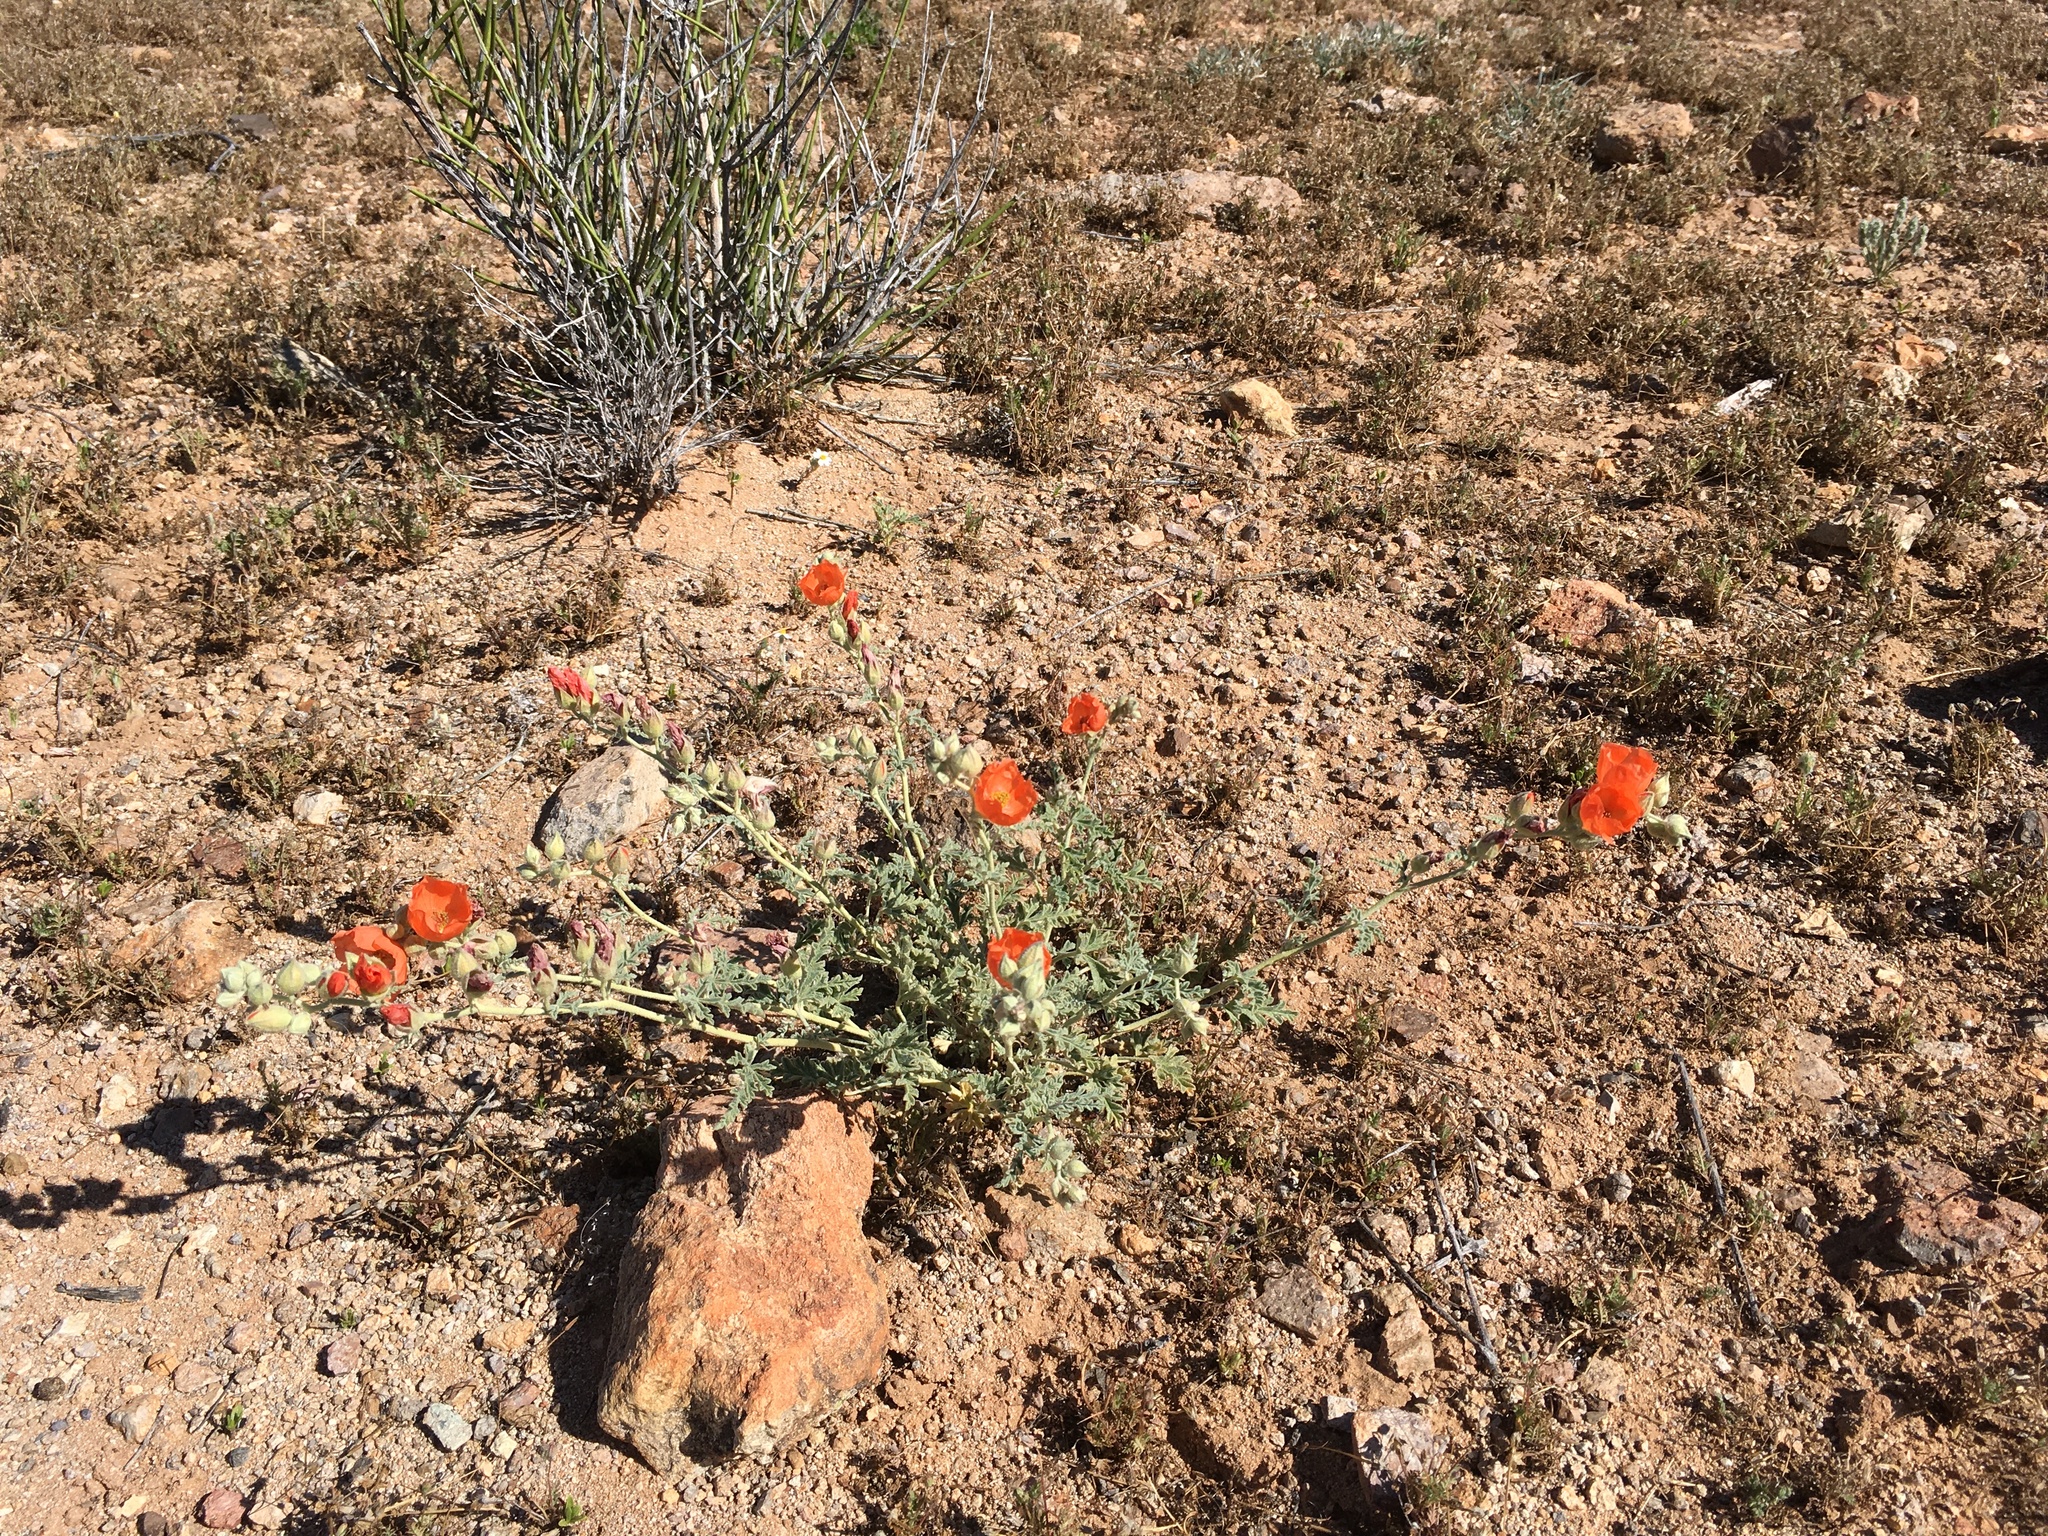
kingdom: Plantae
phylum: Tracheophyta
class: Magnoliopsida
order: Malvales
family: Malvaceae
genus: Sphaeralcea
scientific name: Sphaeralcea hastulata
